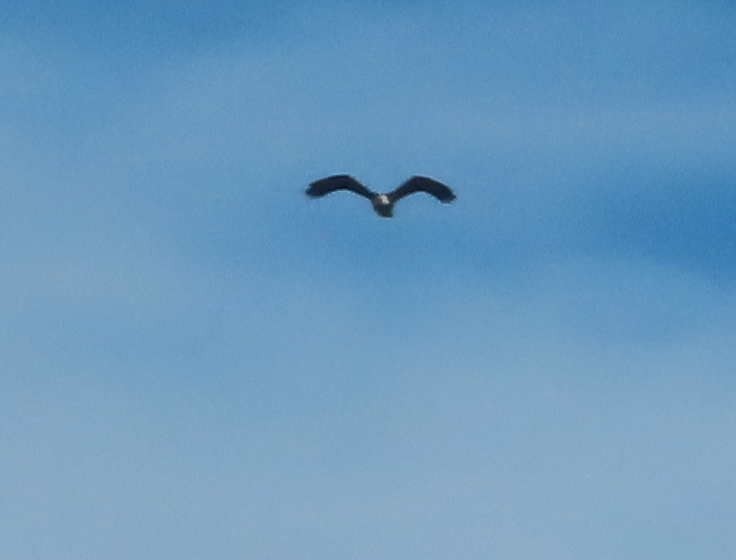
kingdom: Animalia
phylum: Chordata
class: Aves
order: Accipitriformes
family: Accipitridae
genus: Haliaeetus
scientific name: Haliaeetus leucocephalus
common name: Bald eagle
